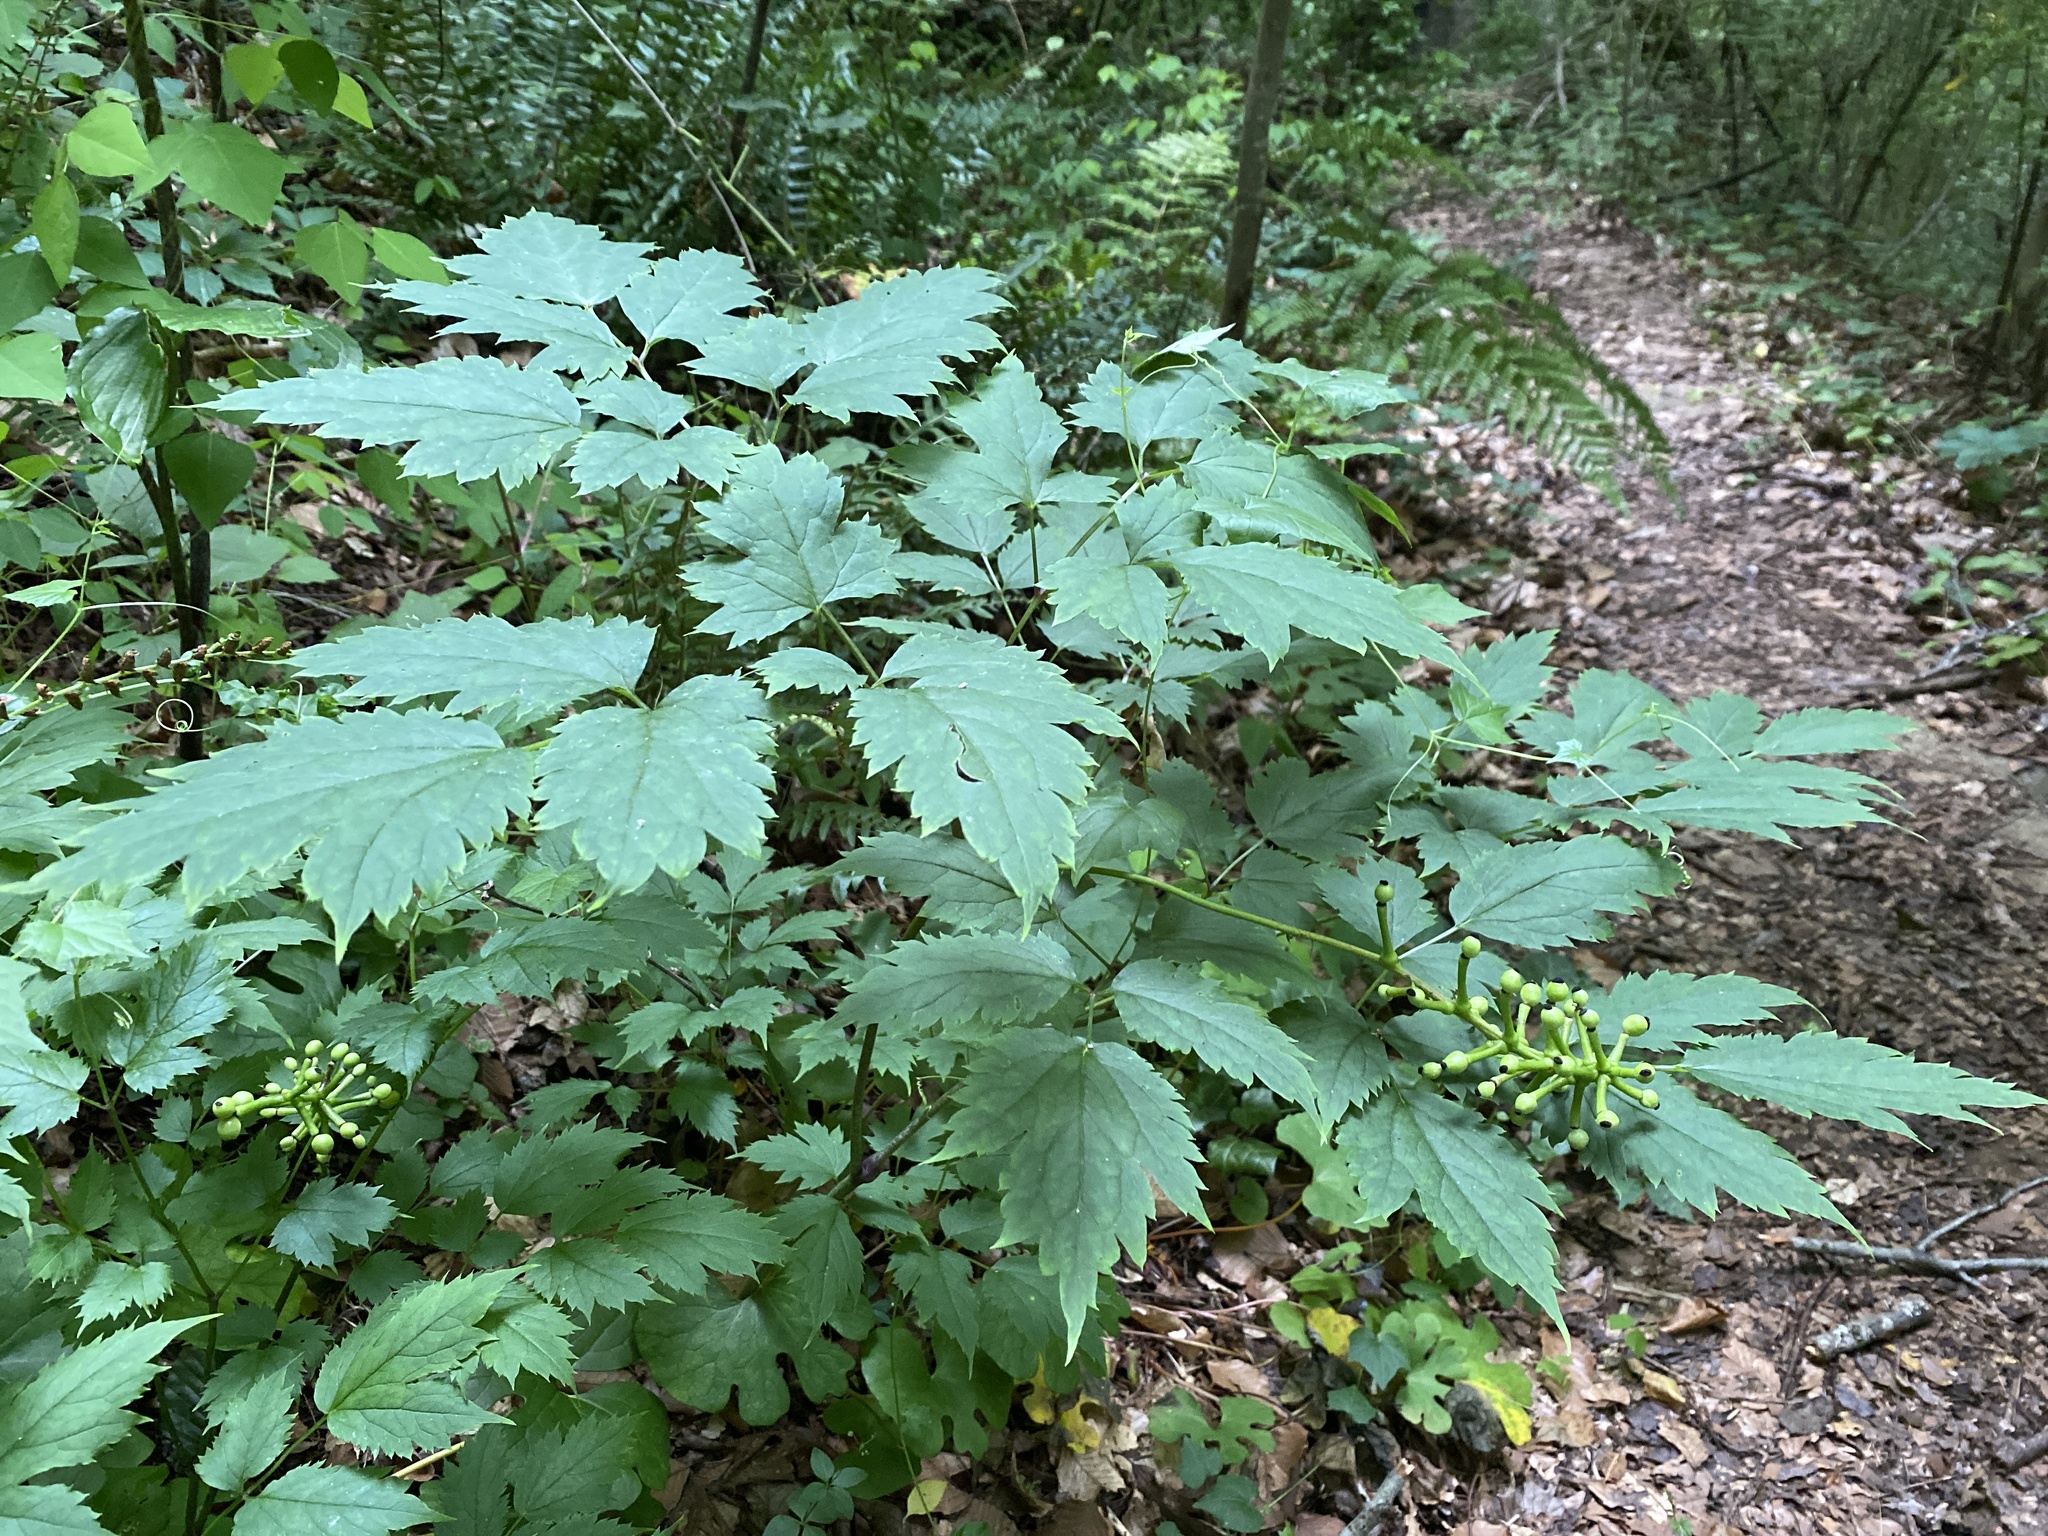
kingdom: Plantae
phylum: Tracheophyta
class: Magnoliopsida
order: Ranunculales
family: Ranunculaceae
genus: Actaea
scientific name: Actaea pachypoda
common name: Doll's-eyes
